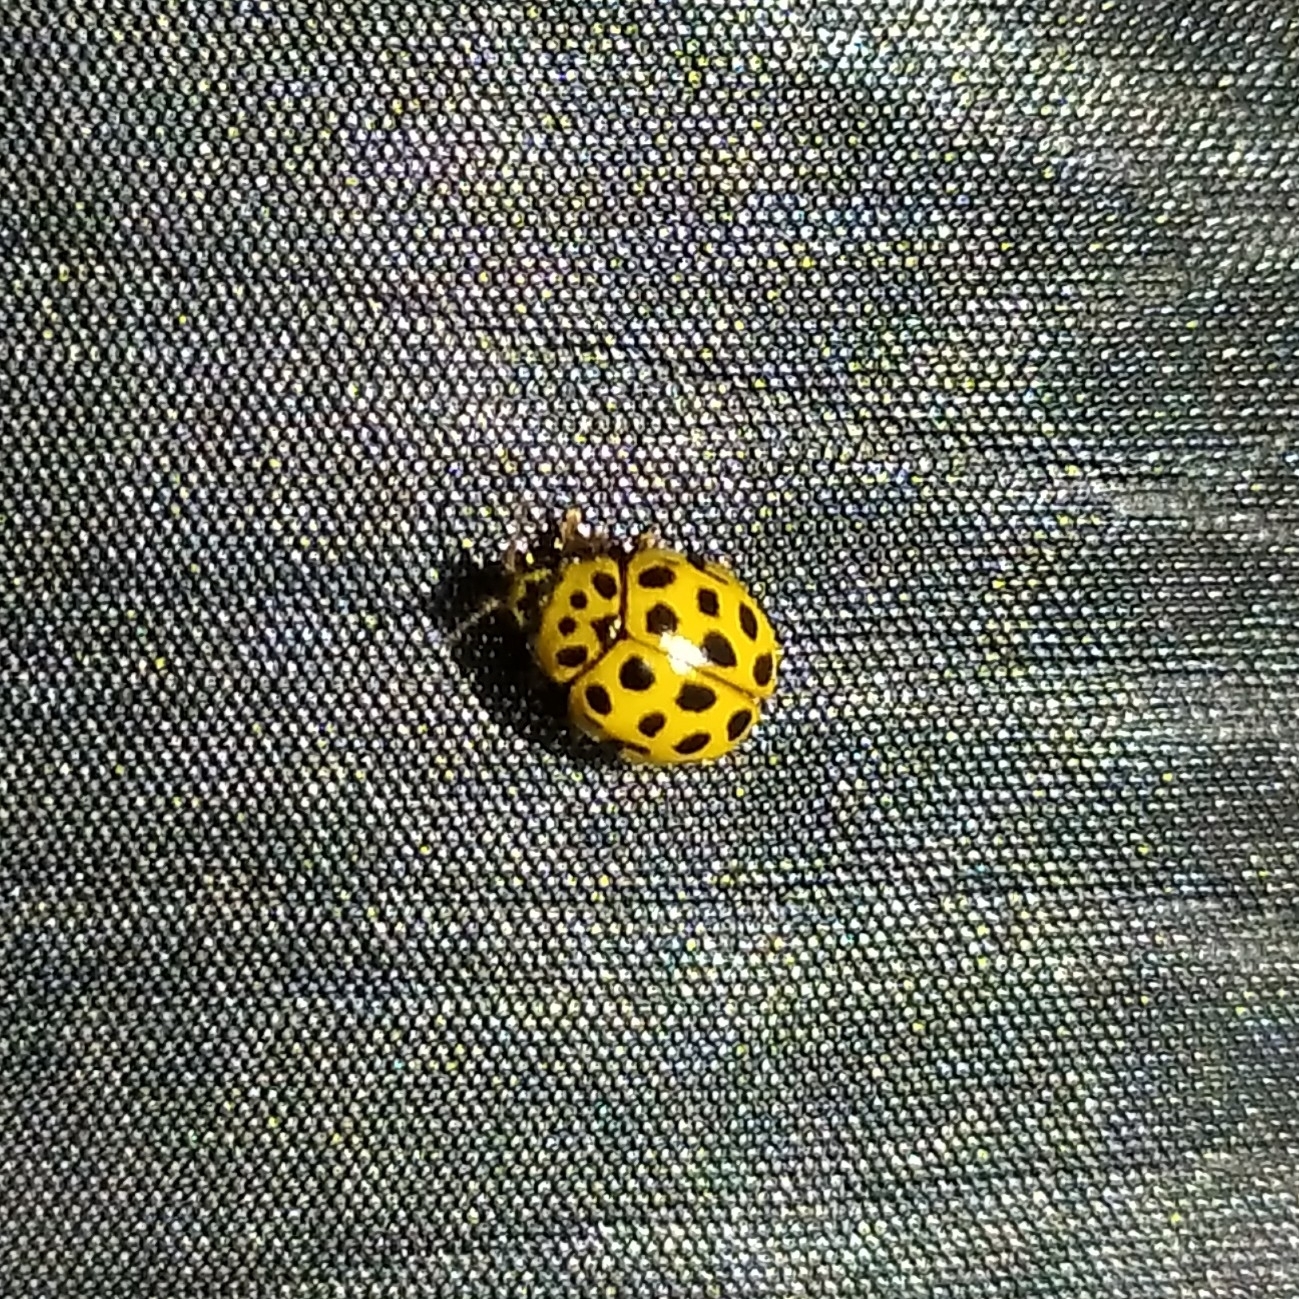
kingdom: Animalia
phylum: Arthropoda
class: Insecta
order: Coleoptera
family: Coccinellidae
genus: Psyllobora
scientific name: Psyllobora vigintiduopunctata
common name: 22-spot ladybird
